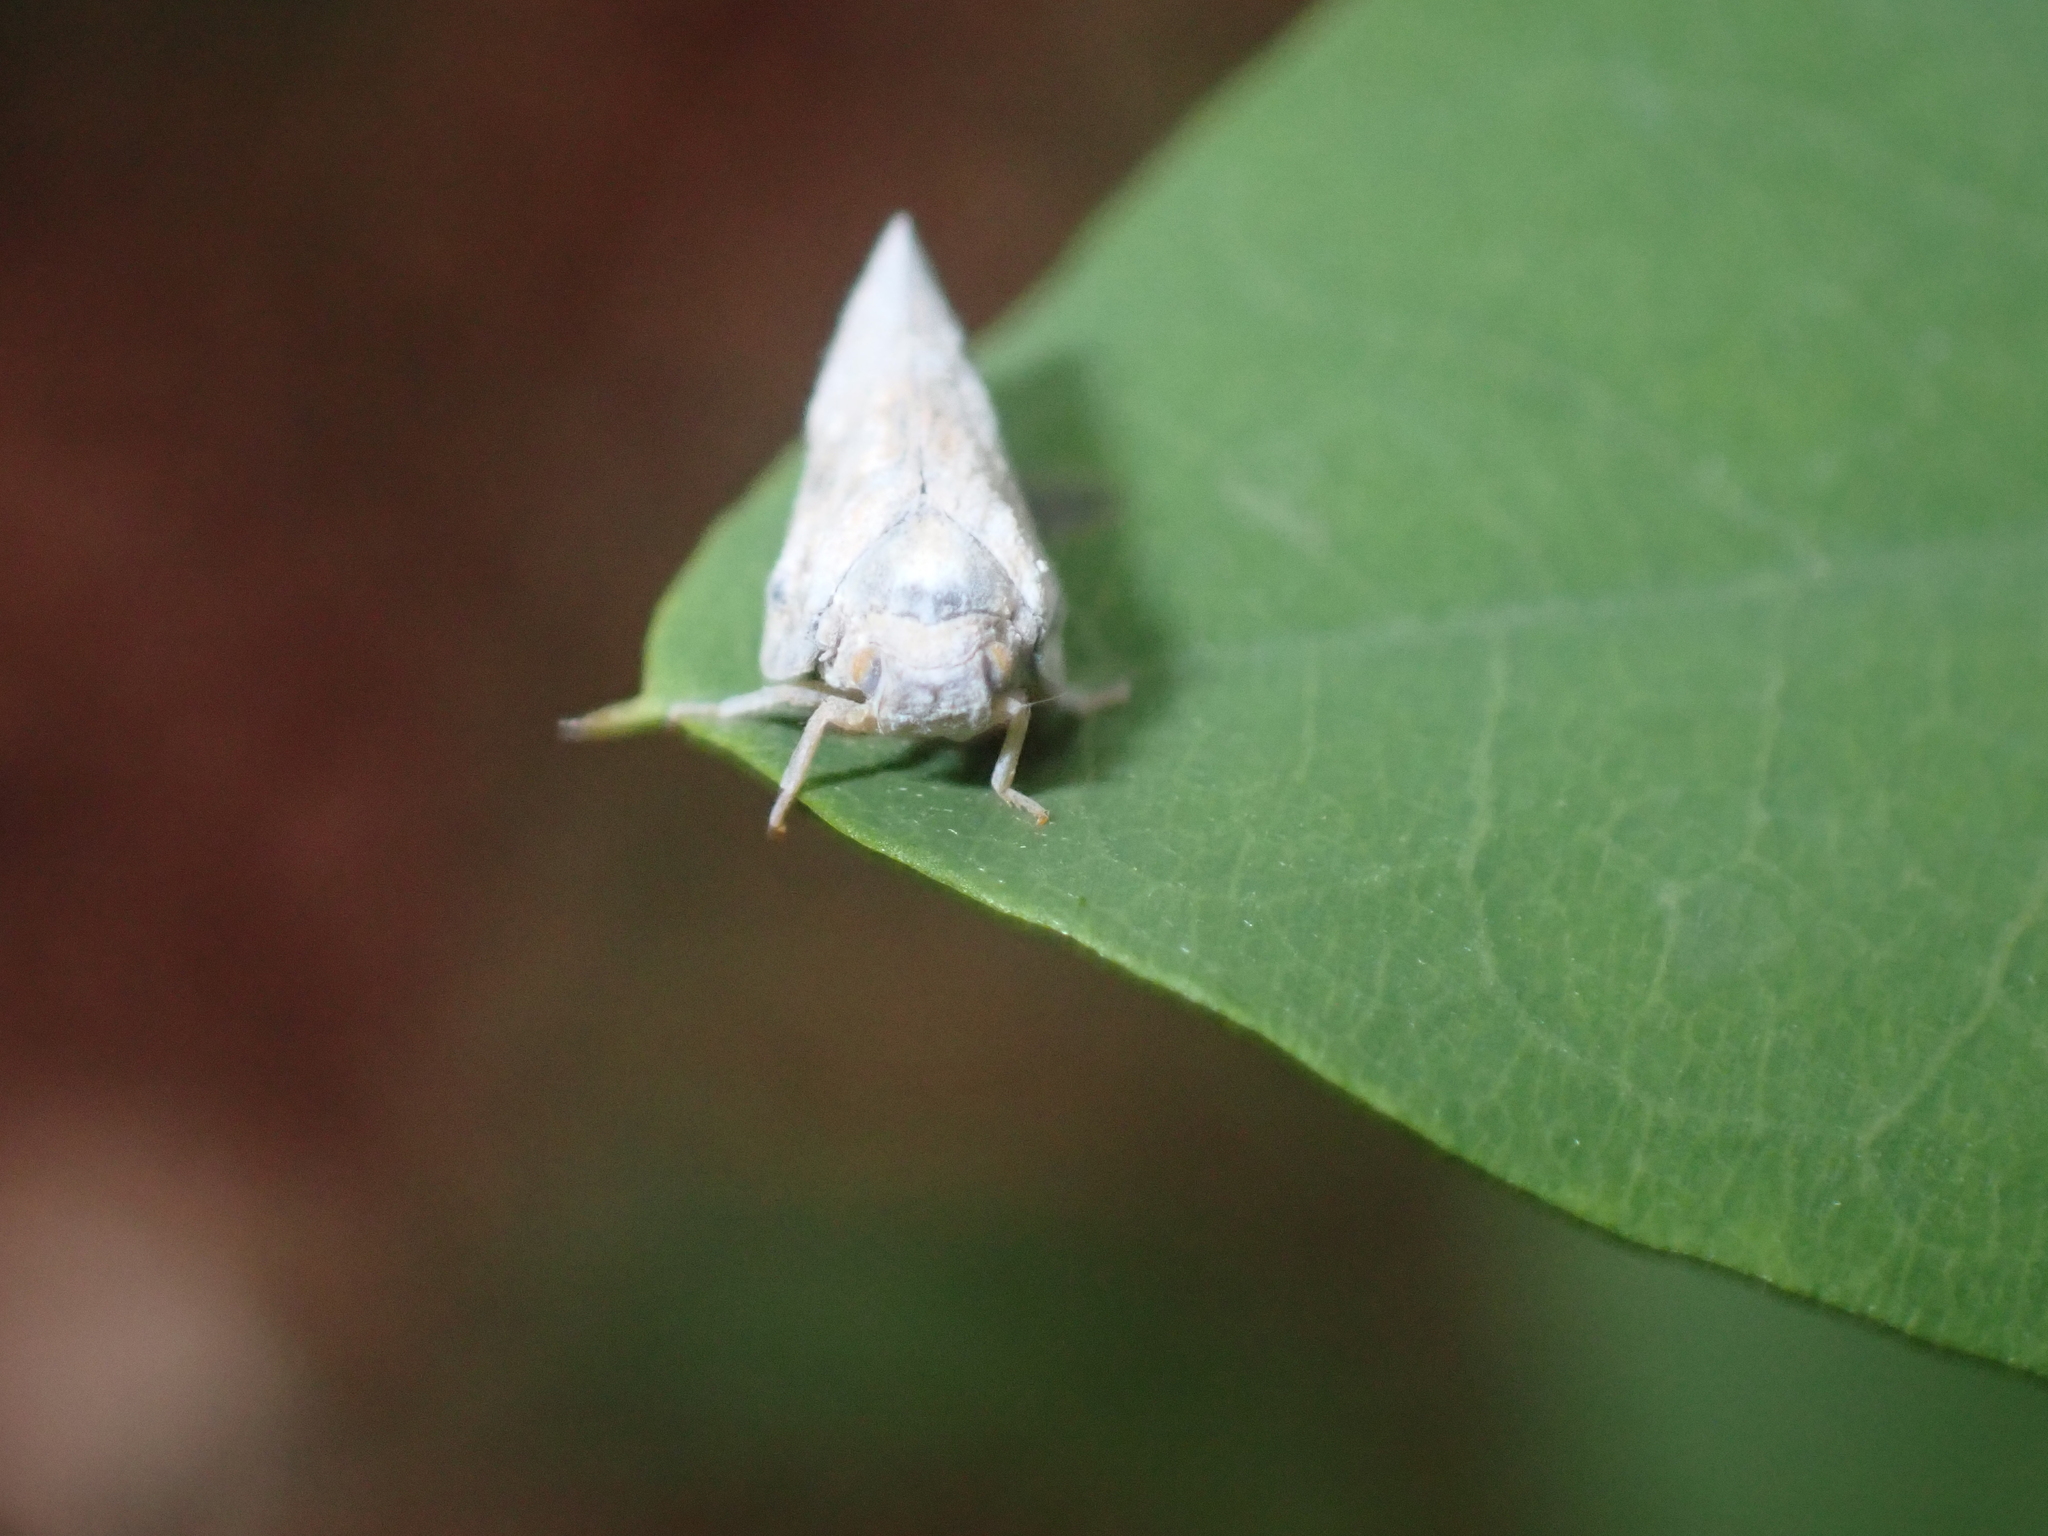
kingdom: Animalia
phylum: Arthropoda
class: Insecta
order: Hemiptera
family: Flatidae
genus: Metcalfa
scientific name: Metcalfa pruinosa
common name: Citrus flatid planthopper
